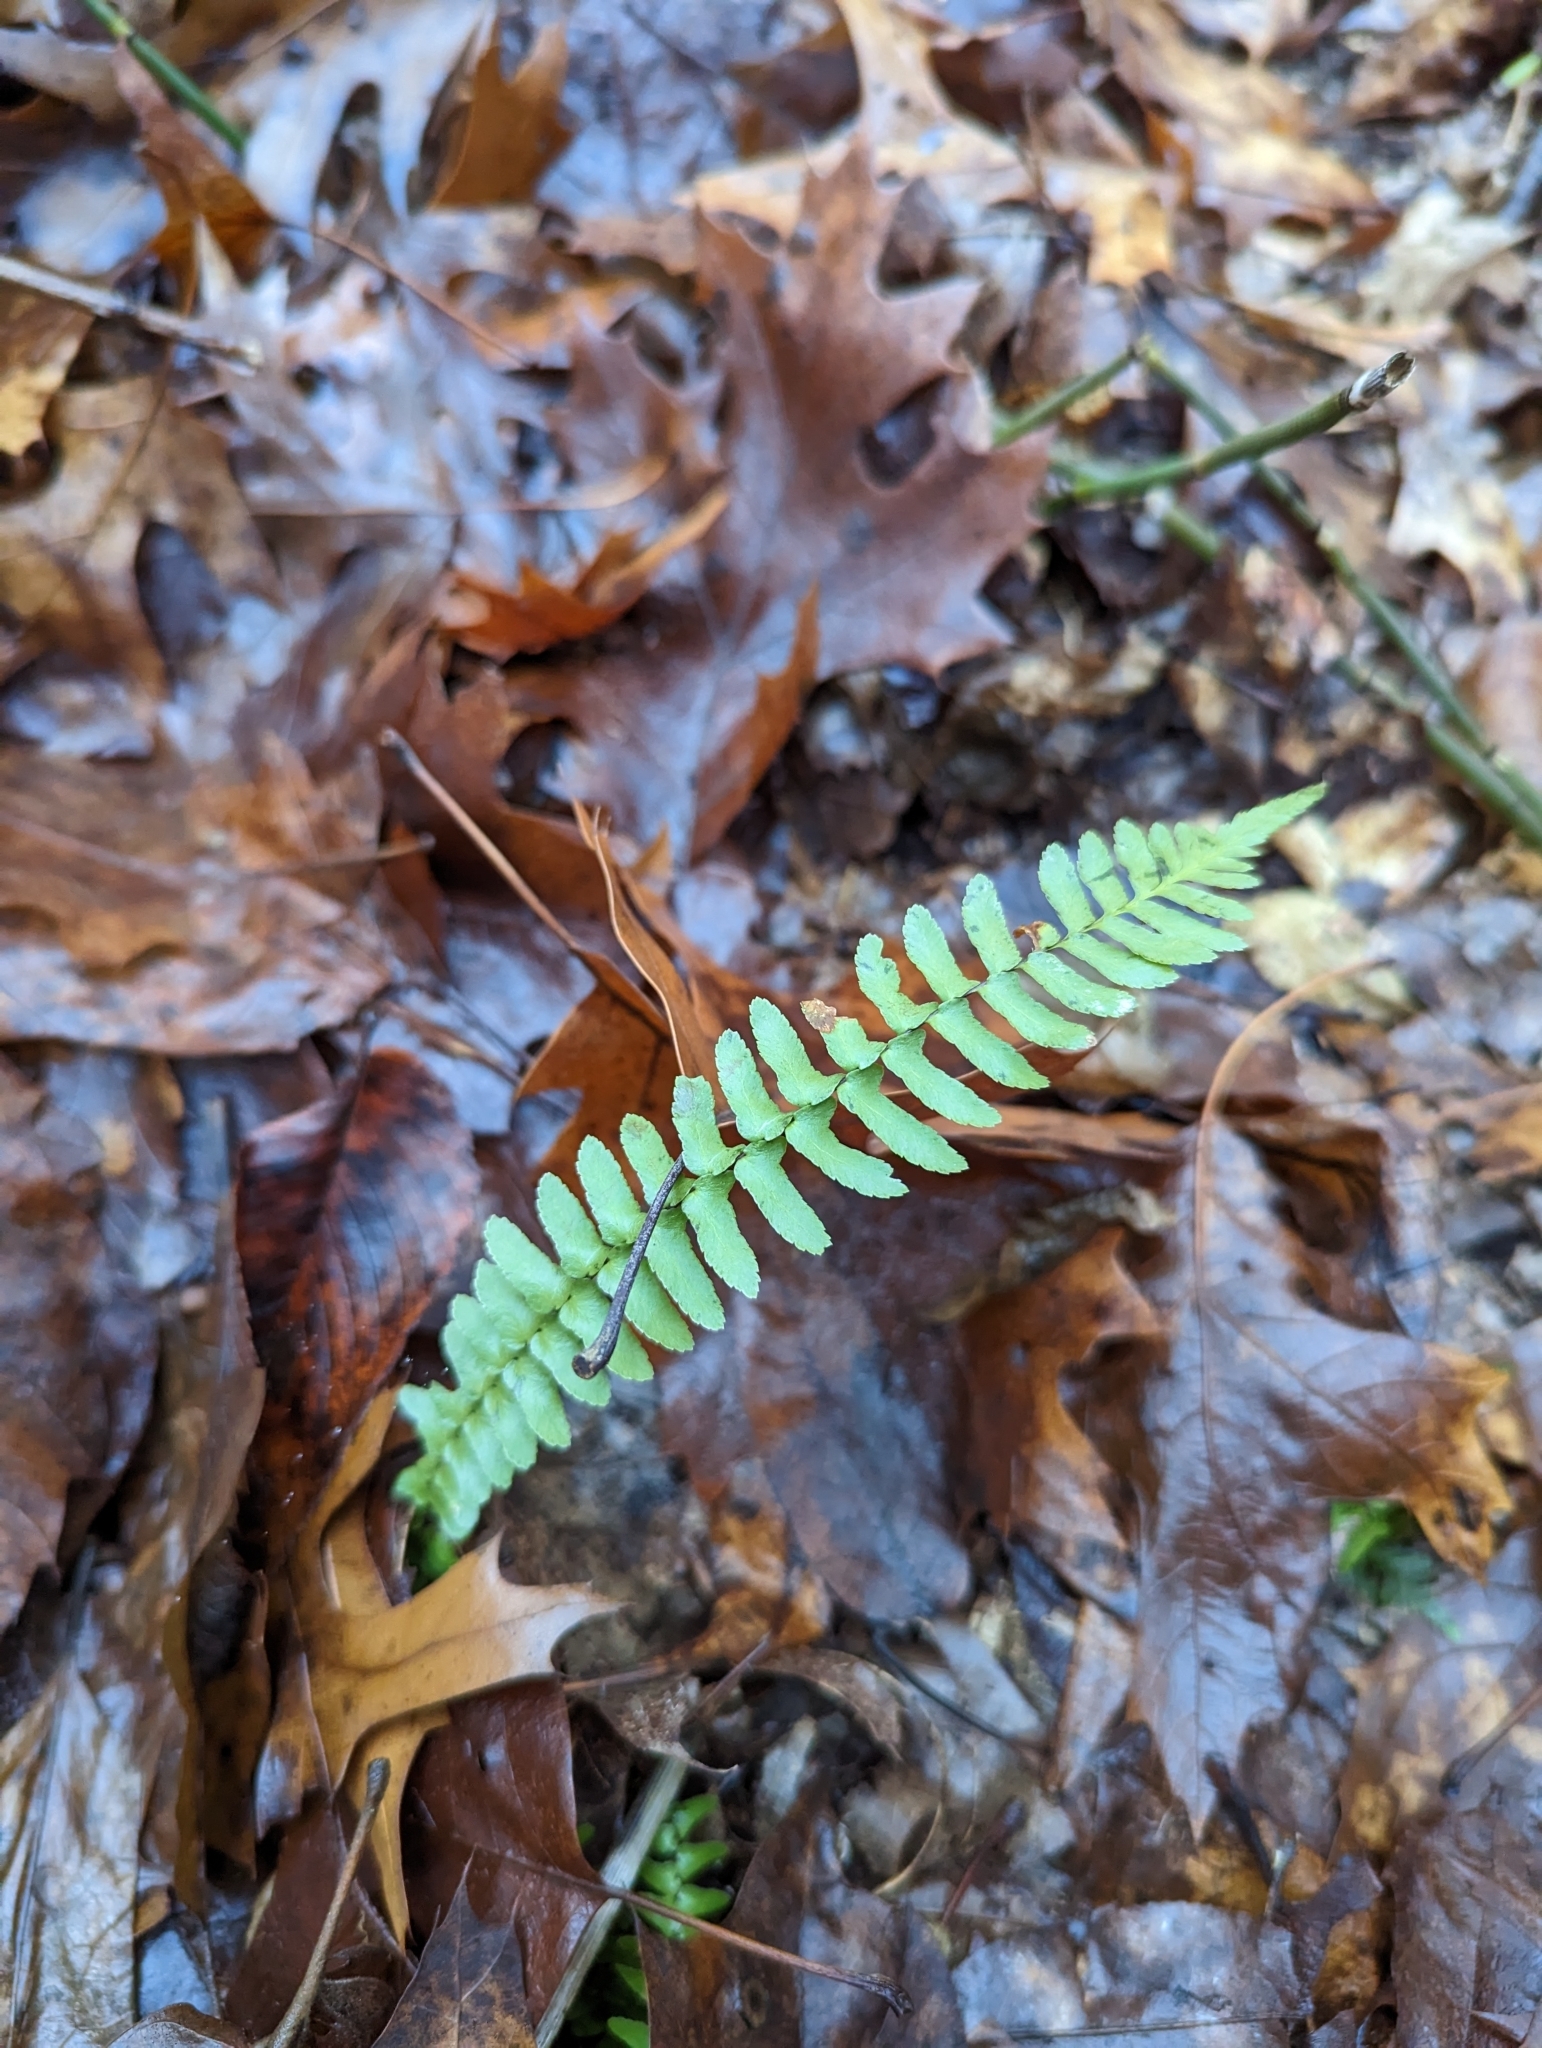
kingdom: Plantae
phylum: Tracheophyta
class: Polypodiopsida
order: Polypodiales
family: Aspleniaceae
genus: Asplenium
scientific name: Asplenium platyneuron
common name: Ebony spleenwort
